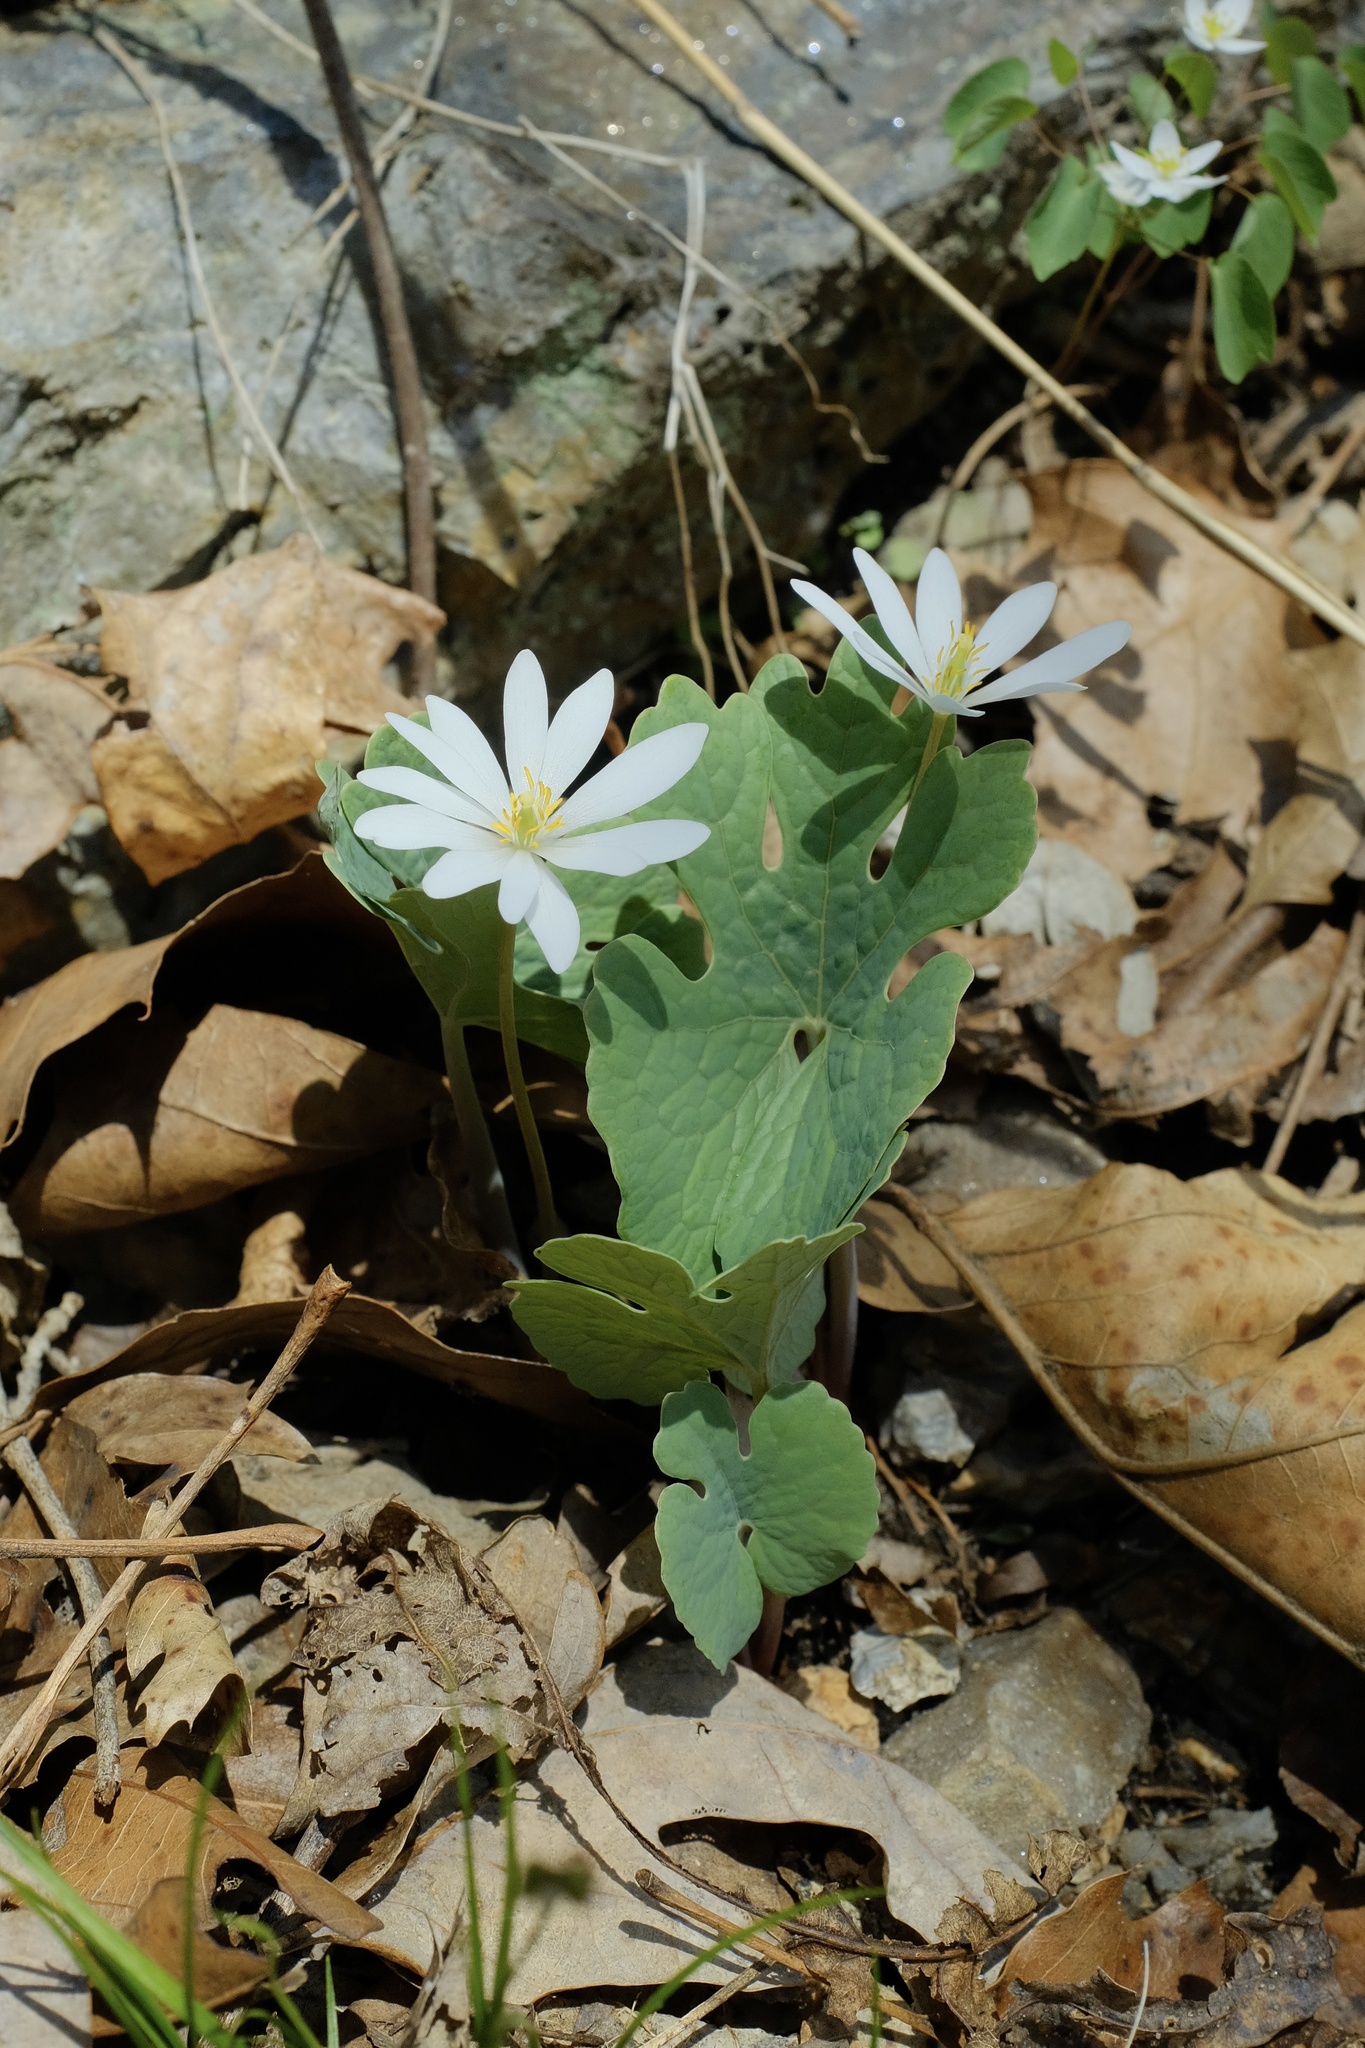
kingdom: Plantae
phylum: Tracheophyta
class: Magnoliopsida
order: Ranunculales
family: Papaveraceae
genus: Sanguinaria
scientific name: Sanguinaria canadensis
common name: Bloodroot
